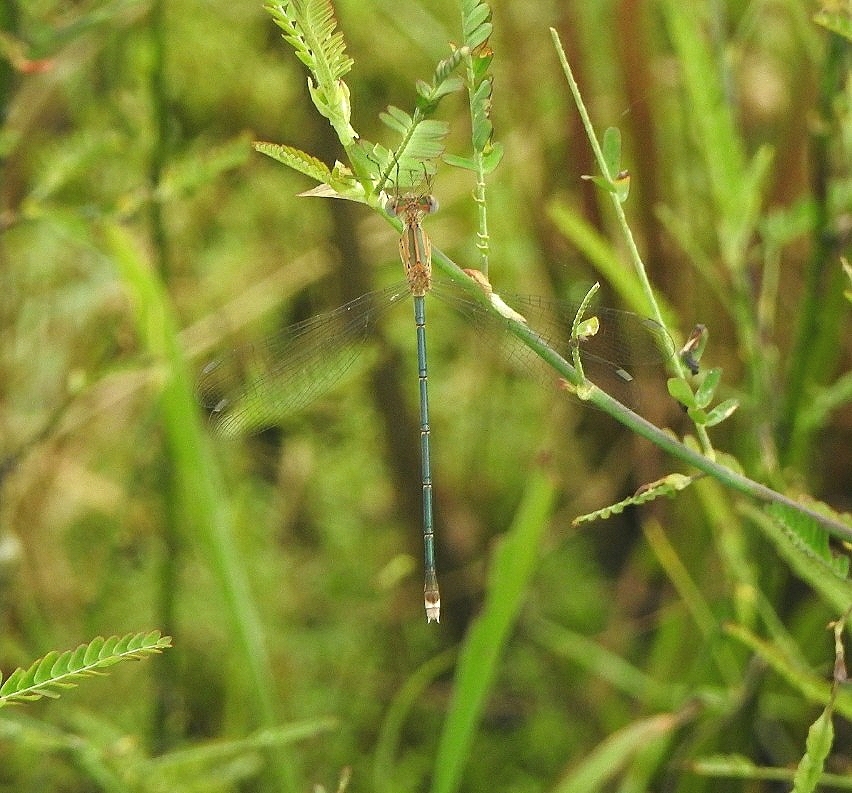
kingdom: Animalia
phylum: Arthropoda
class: Insecta
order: Odonata
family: Lestidae
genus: Lestes
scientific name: Lestes elatus
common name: Emerald spreadwing
